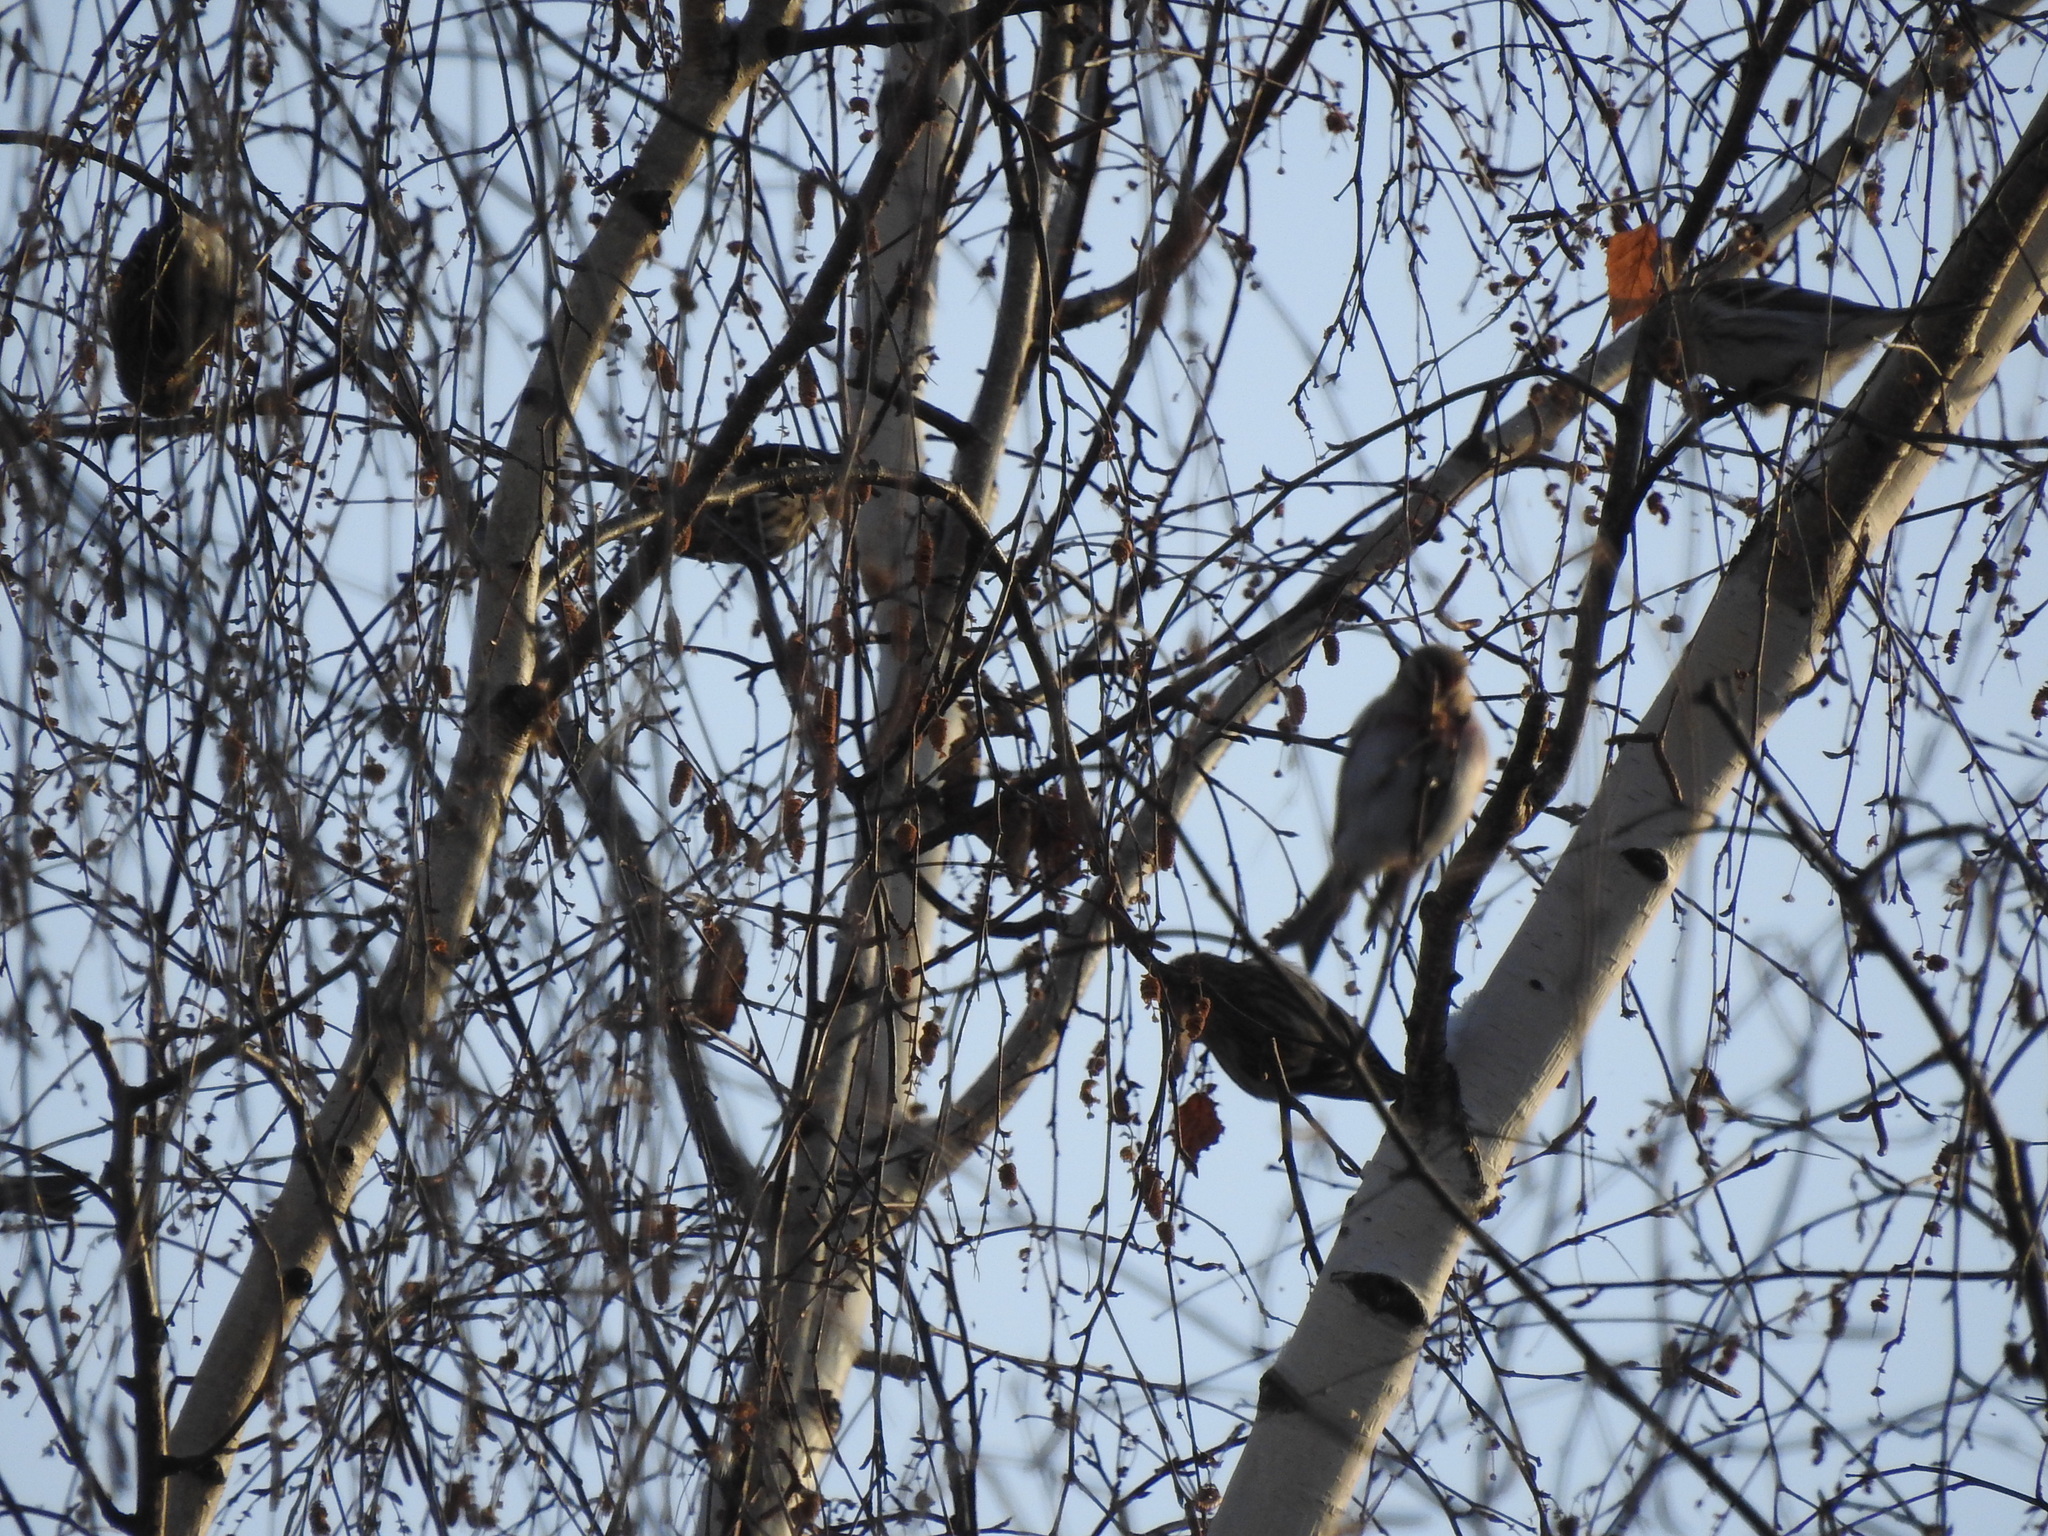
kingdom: Animalia
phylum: Chordata
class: Aves
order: Passeriformes
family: Fringillidae
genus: Acanthis
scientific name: Acanthis flammea
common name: Common redpoll
